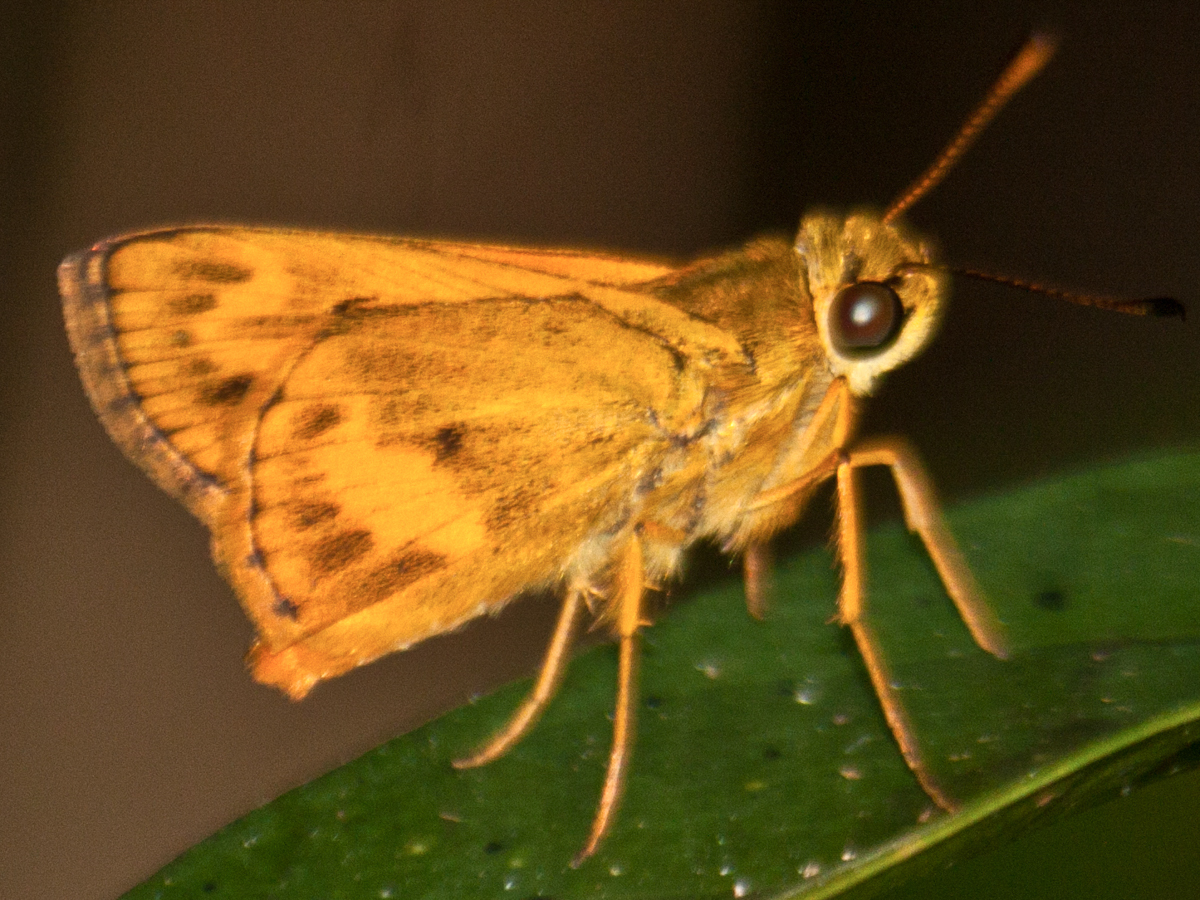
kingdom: Animalia
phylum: Arthropoda
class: Insecta
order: Lepidoptera
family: Hesperiidae
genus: Oriens
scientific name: Oriens gola
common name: Common dartlet
